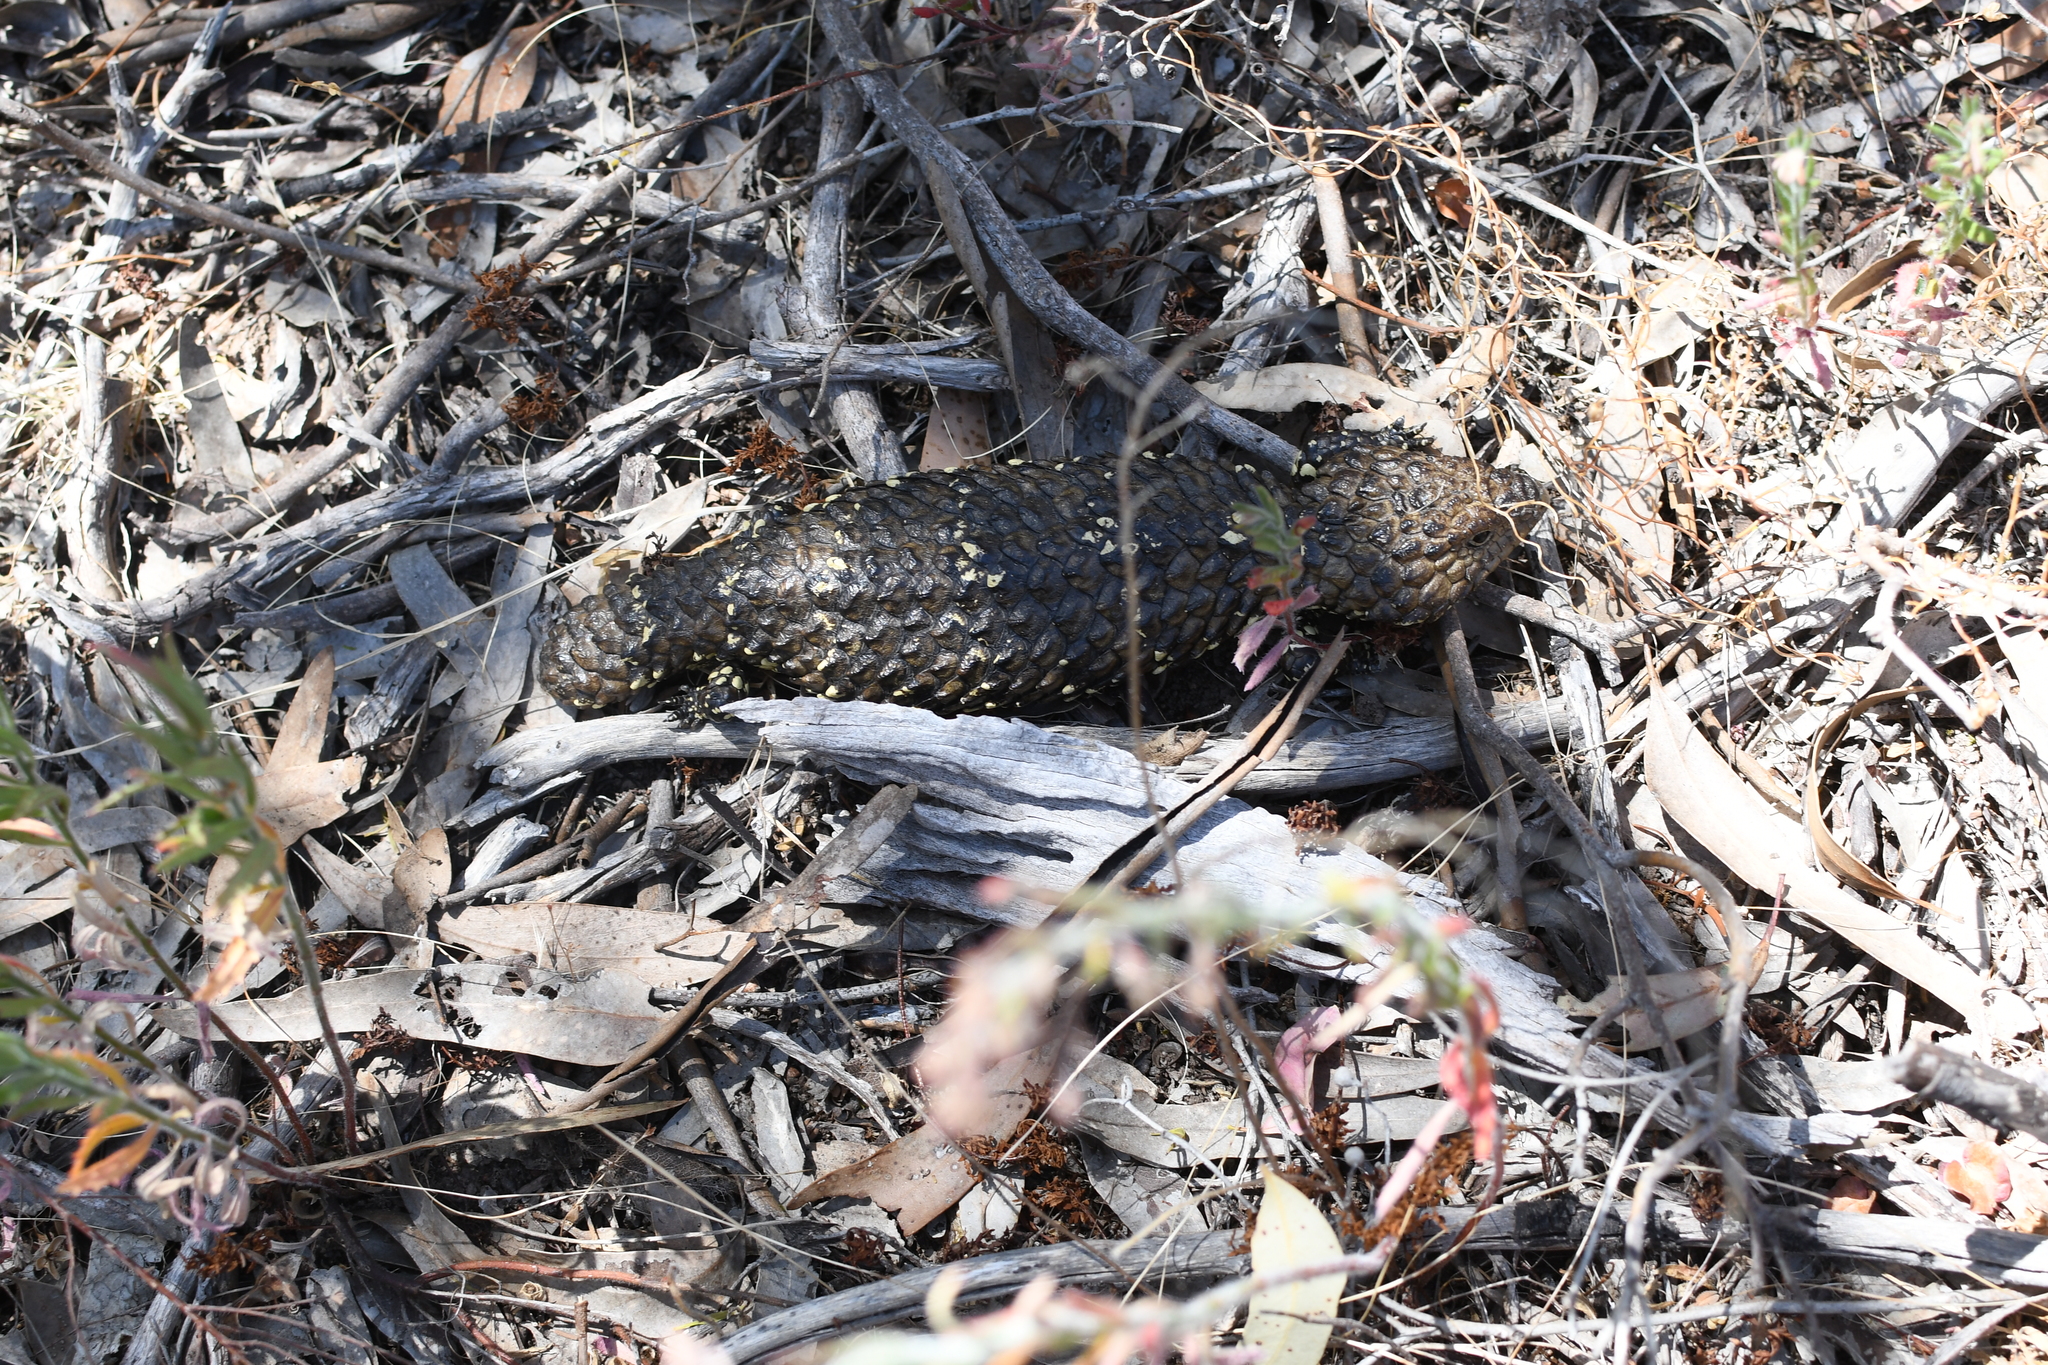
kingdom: Animalia
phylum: Chordata
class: Squamata
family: Scincidae
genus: Tiliqua
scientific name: Tiliqua rugosa
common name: Pinecone lizard
